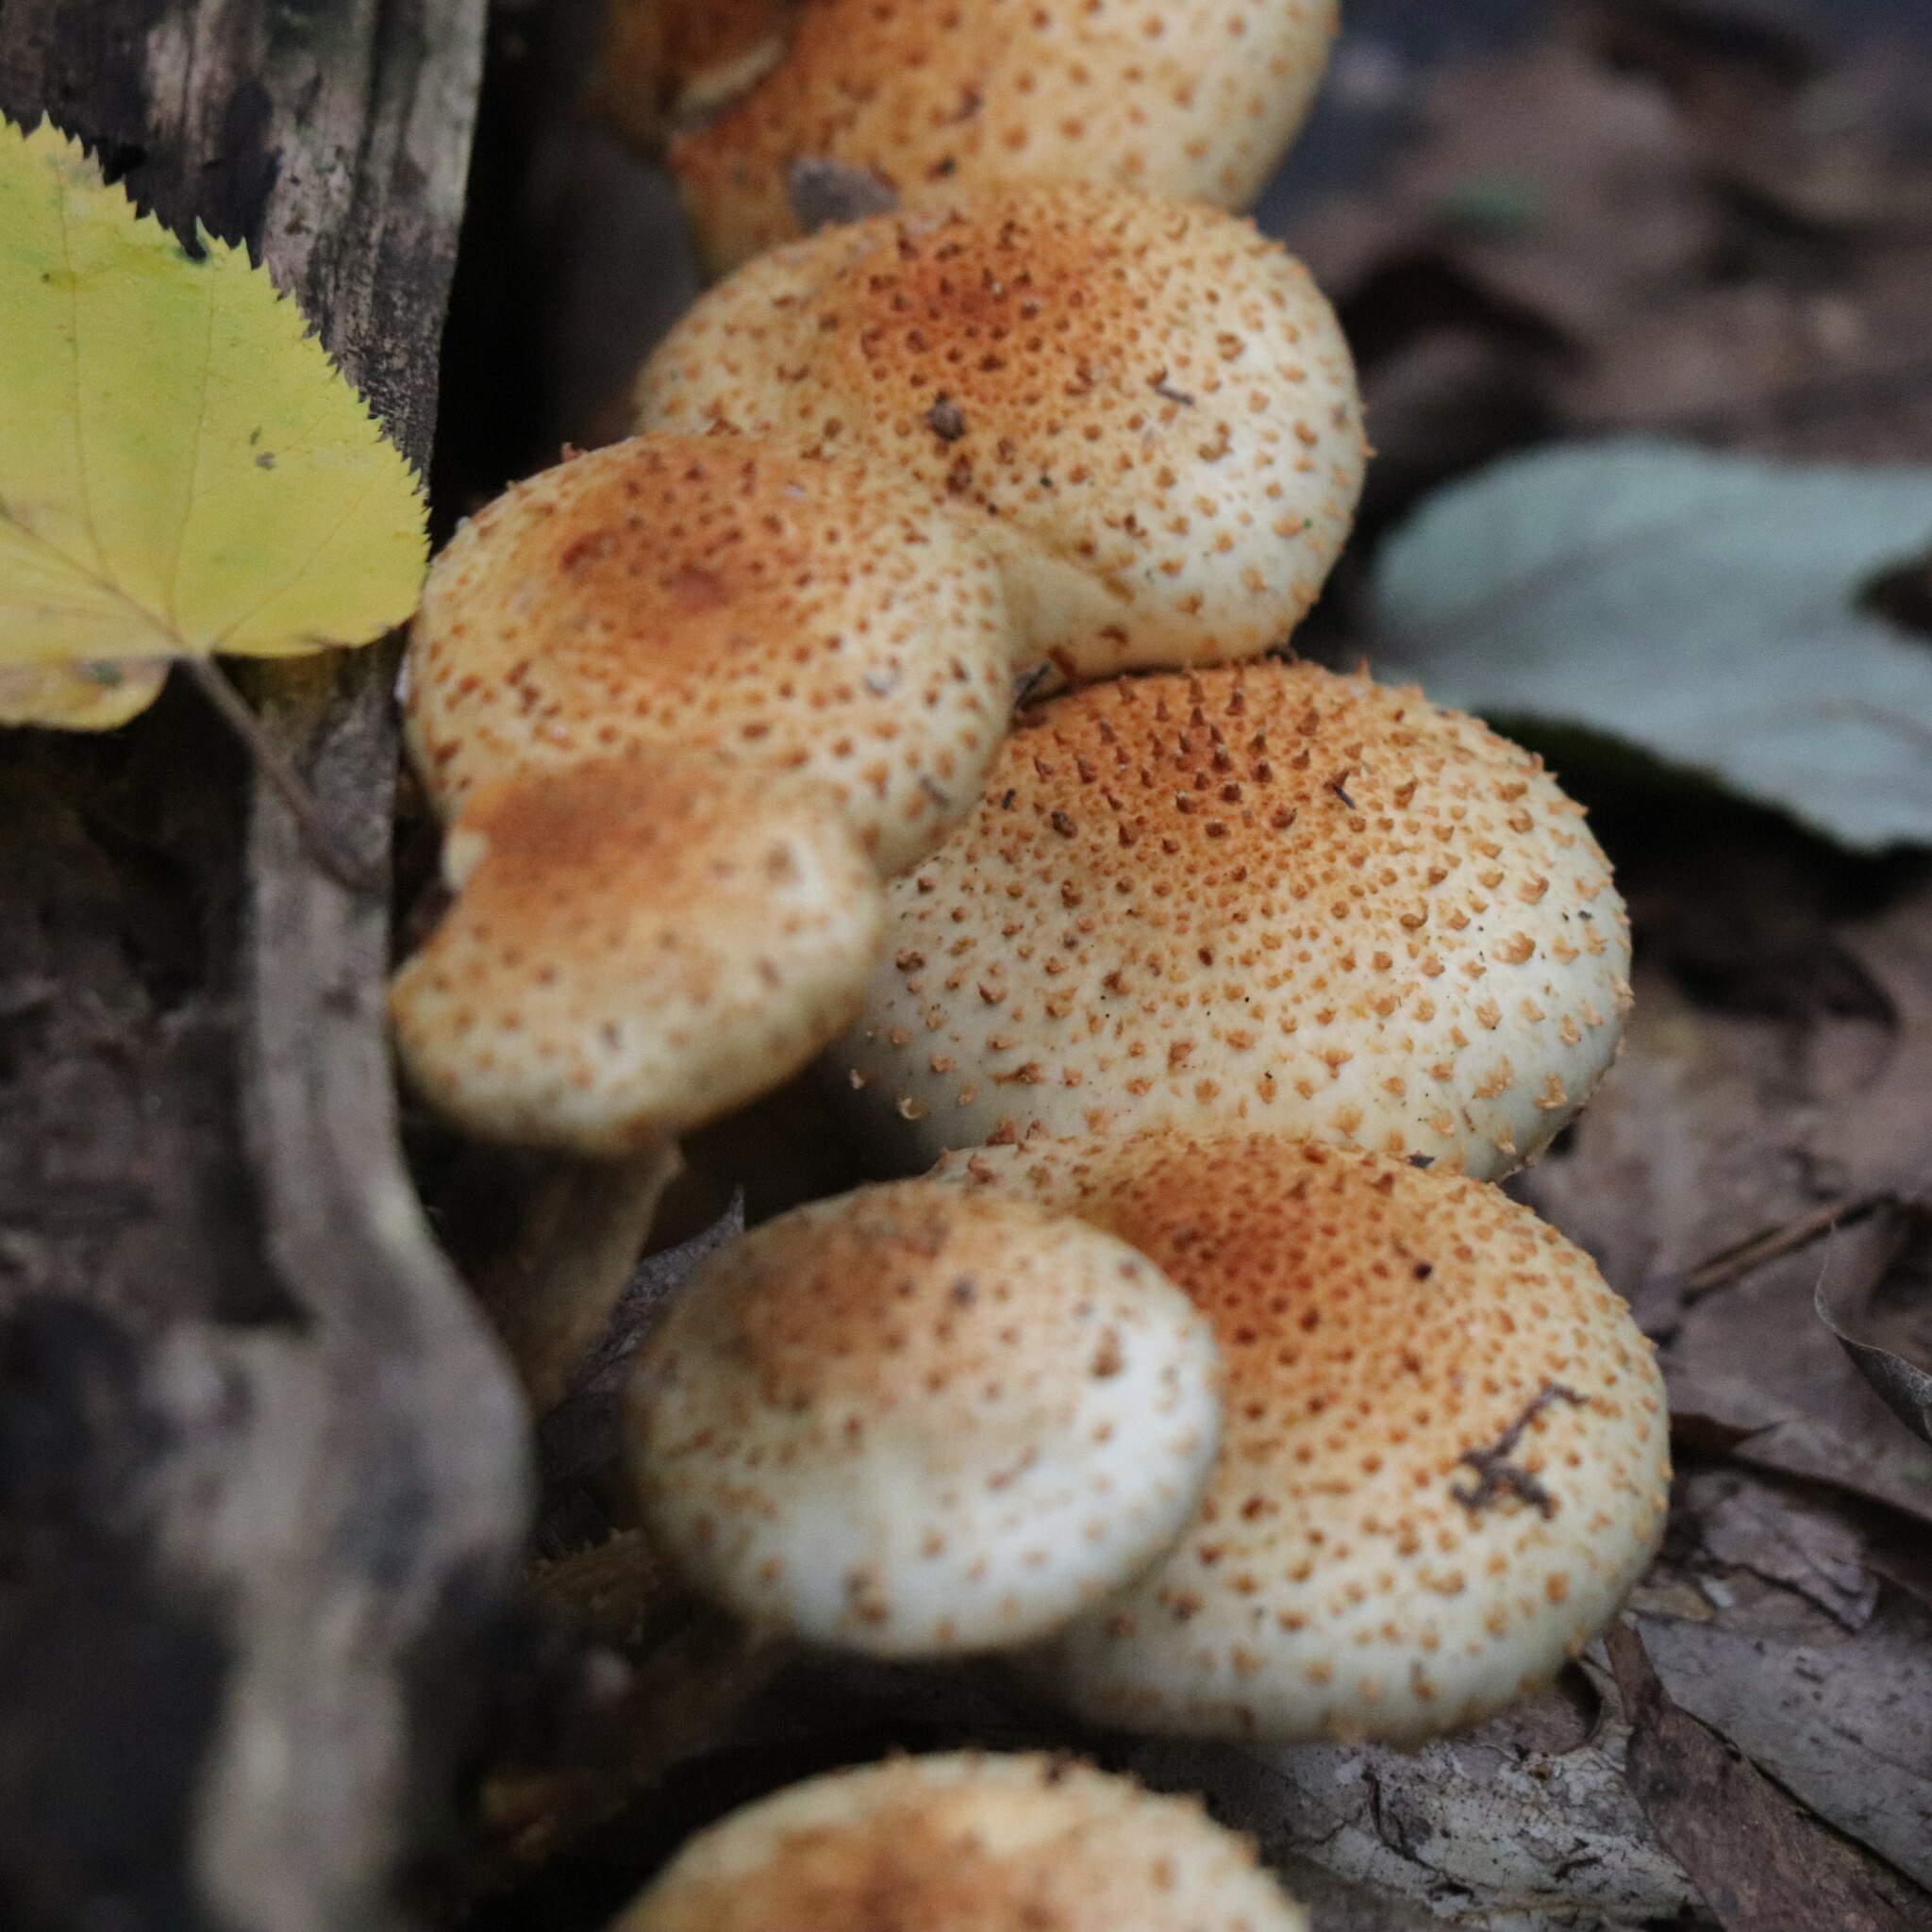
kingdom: Fungi
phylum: Basidiomycota
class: Agaricomycetes
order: Agaricales
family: Strophariaceae
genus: Pholiota
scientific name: Pholiota squarrosoides
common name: Sharp-scaly pholiota
